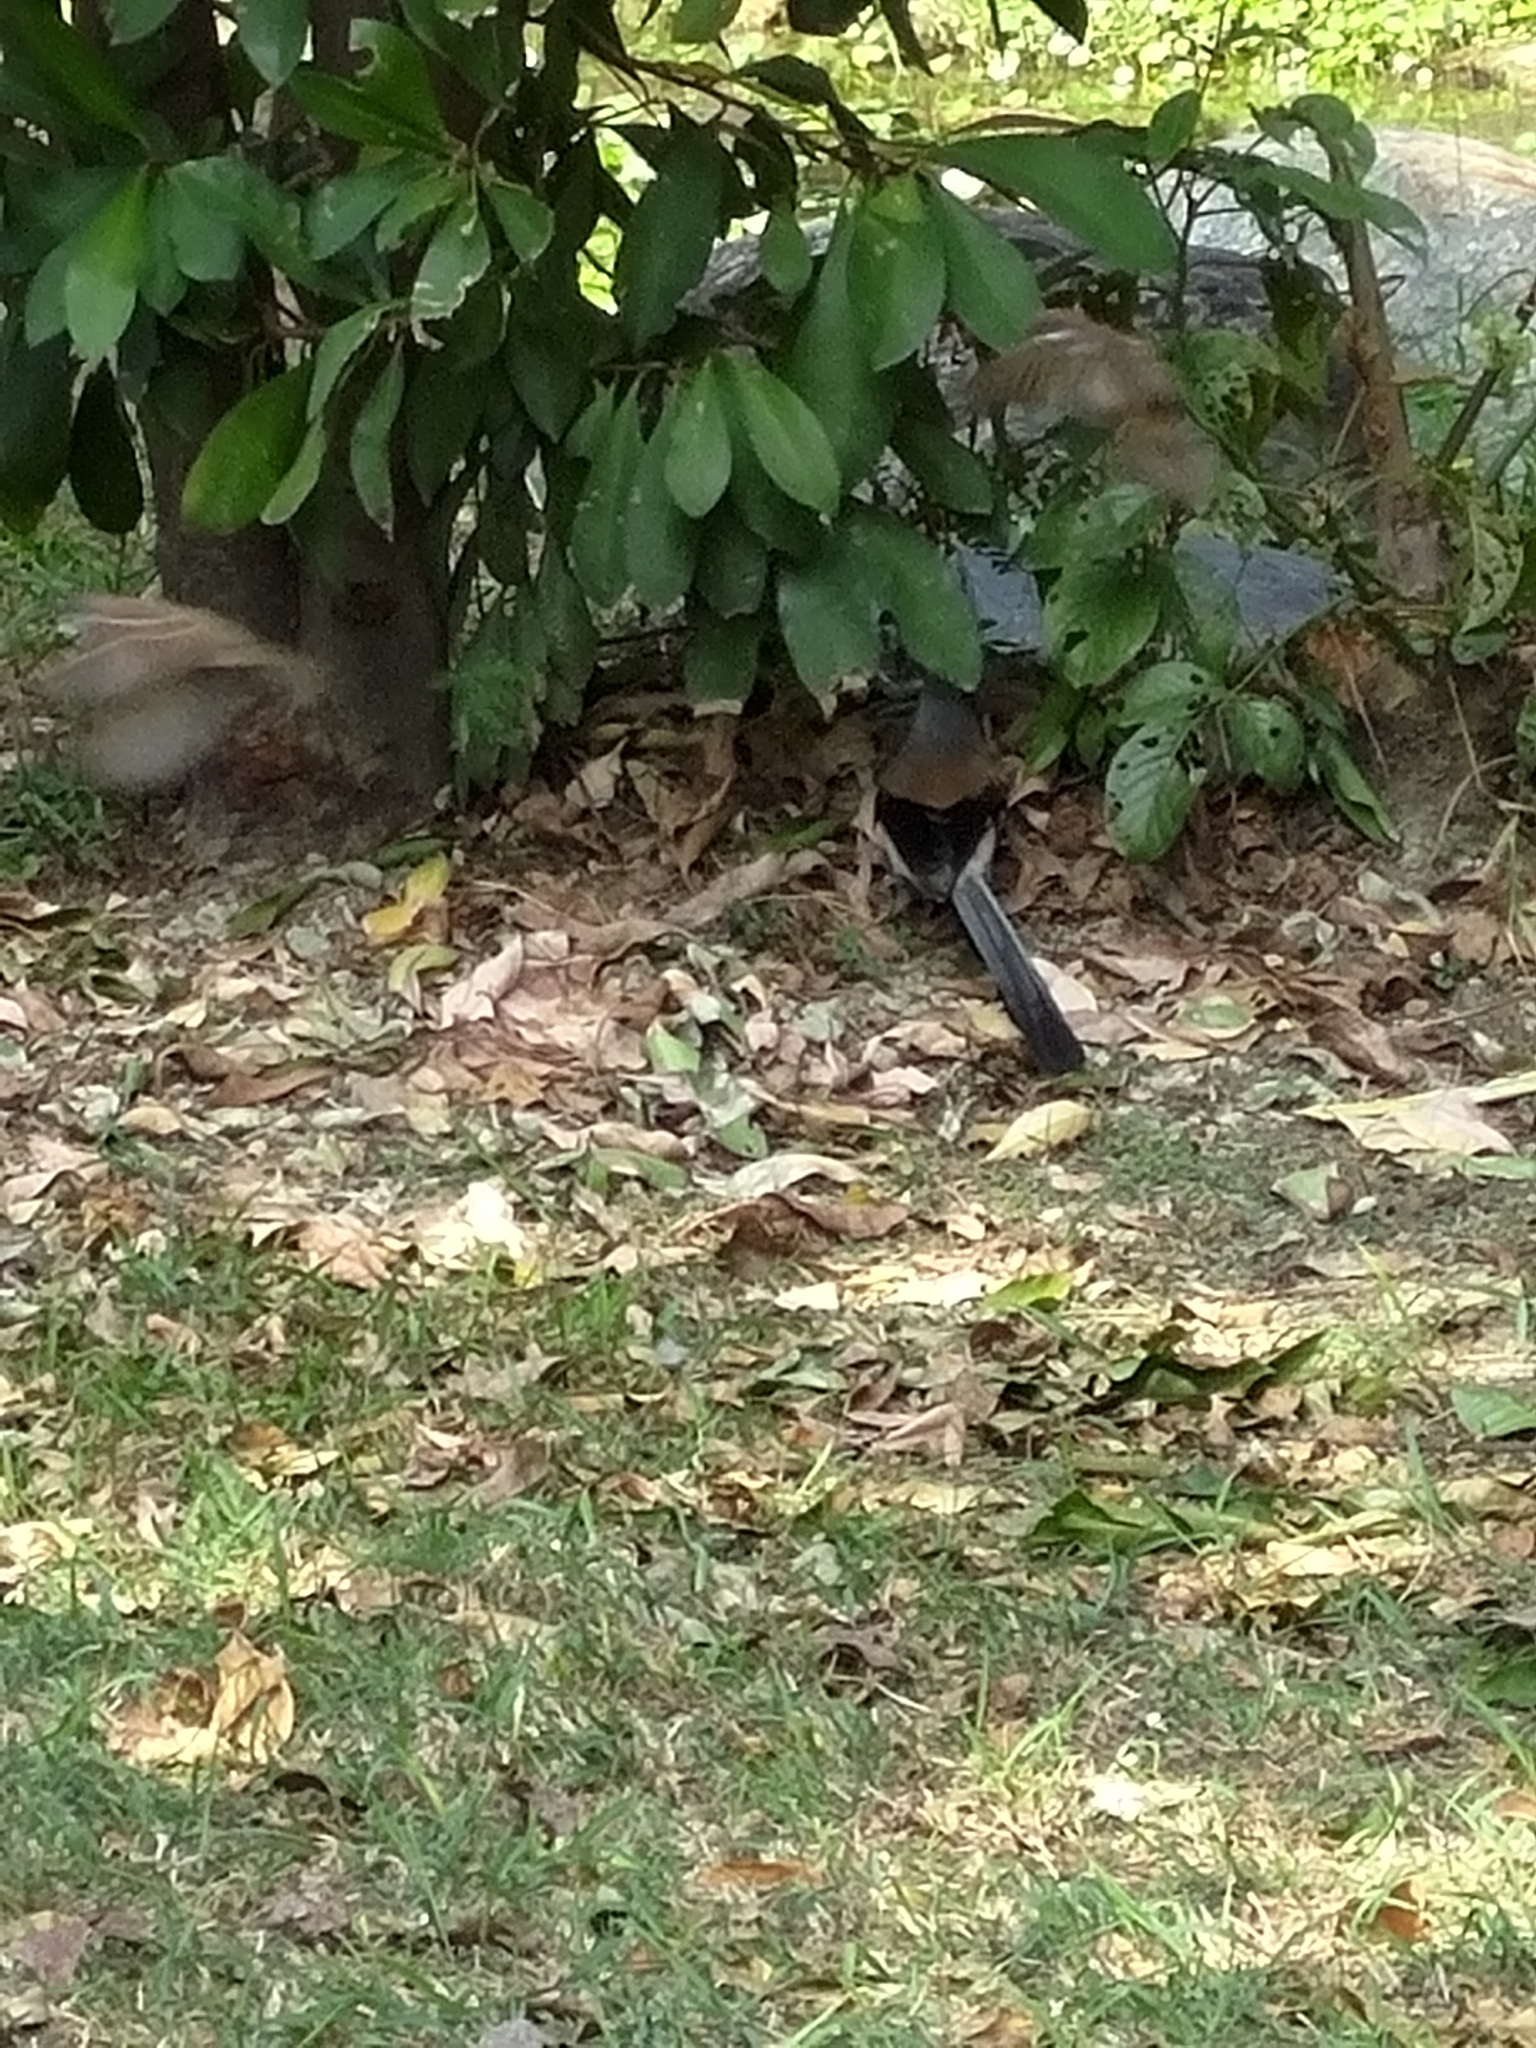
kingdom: Animalia
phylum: Chordata
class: Aves
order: Passeriformes
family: Corvidae
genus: Dendrocitta
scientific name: Dendrocitta formosae
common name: Grey treepie
